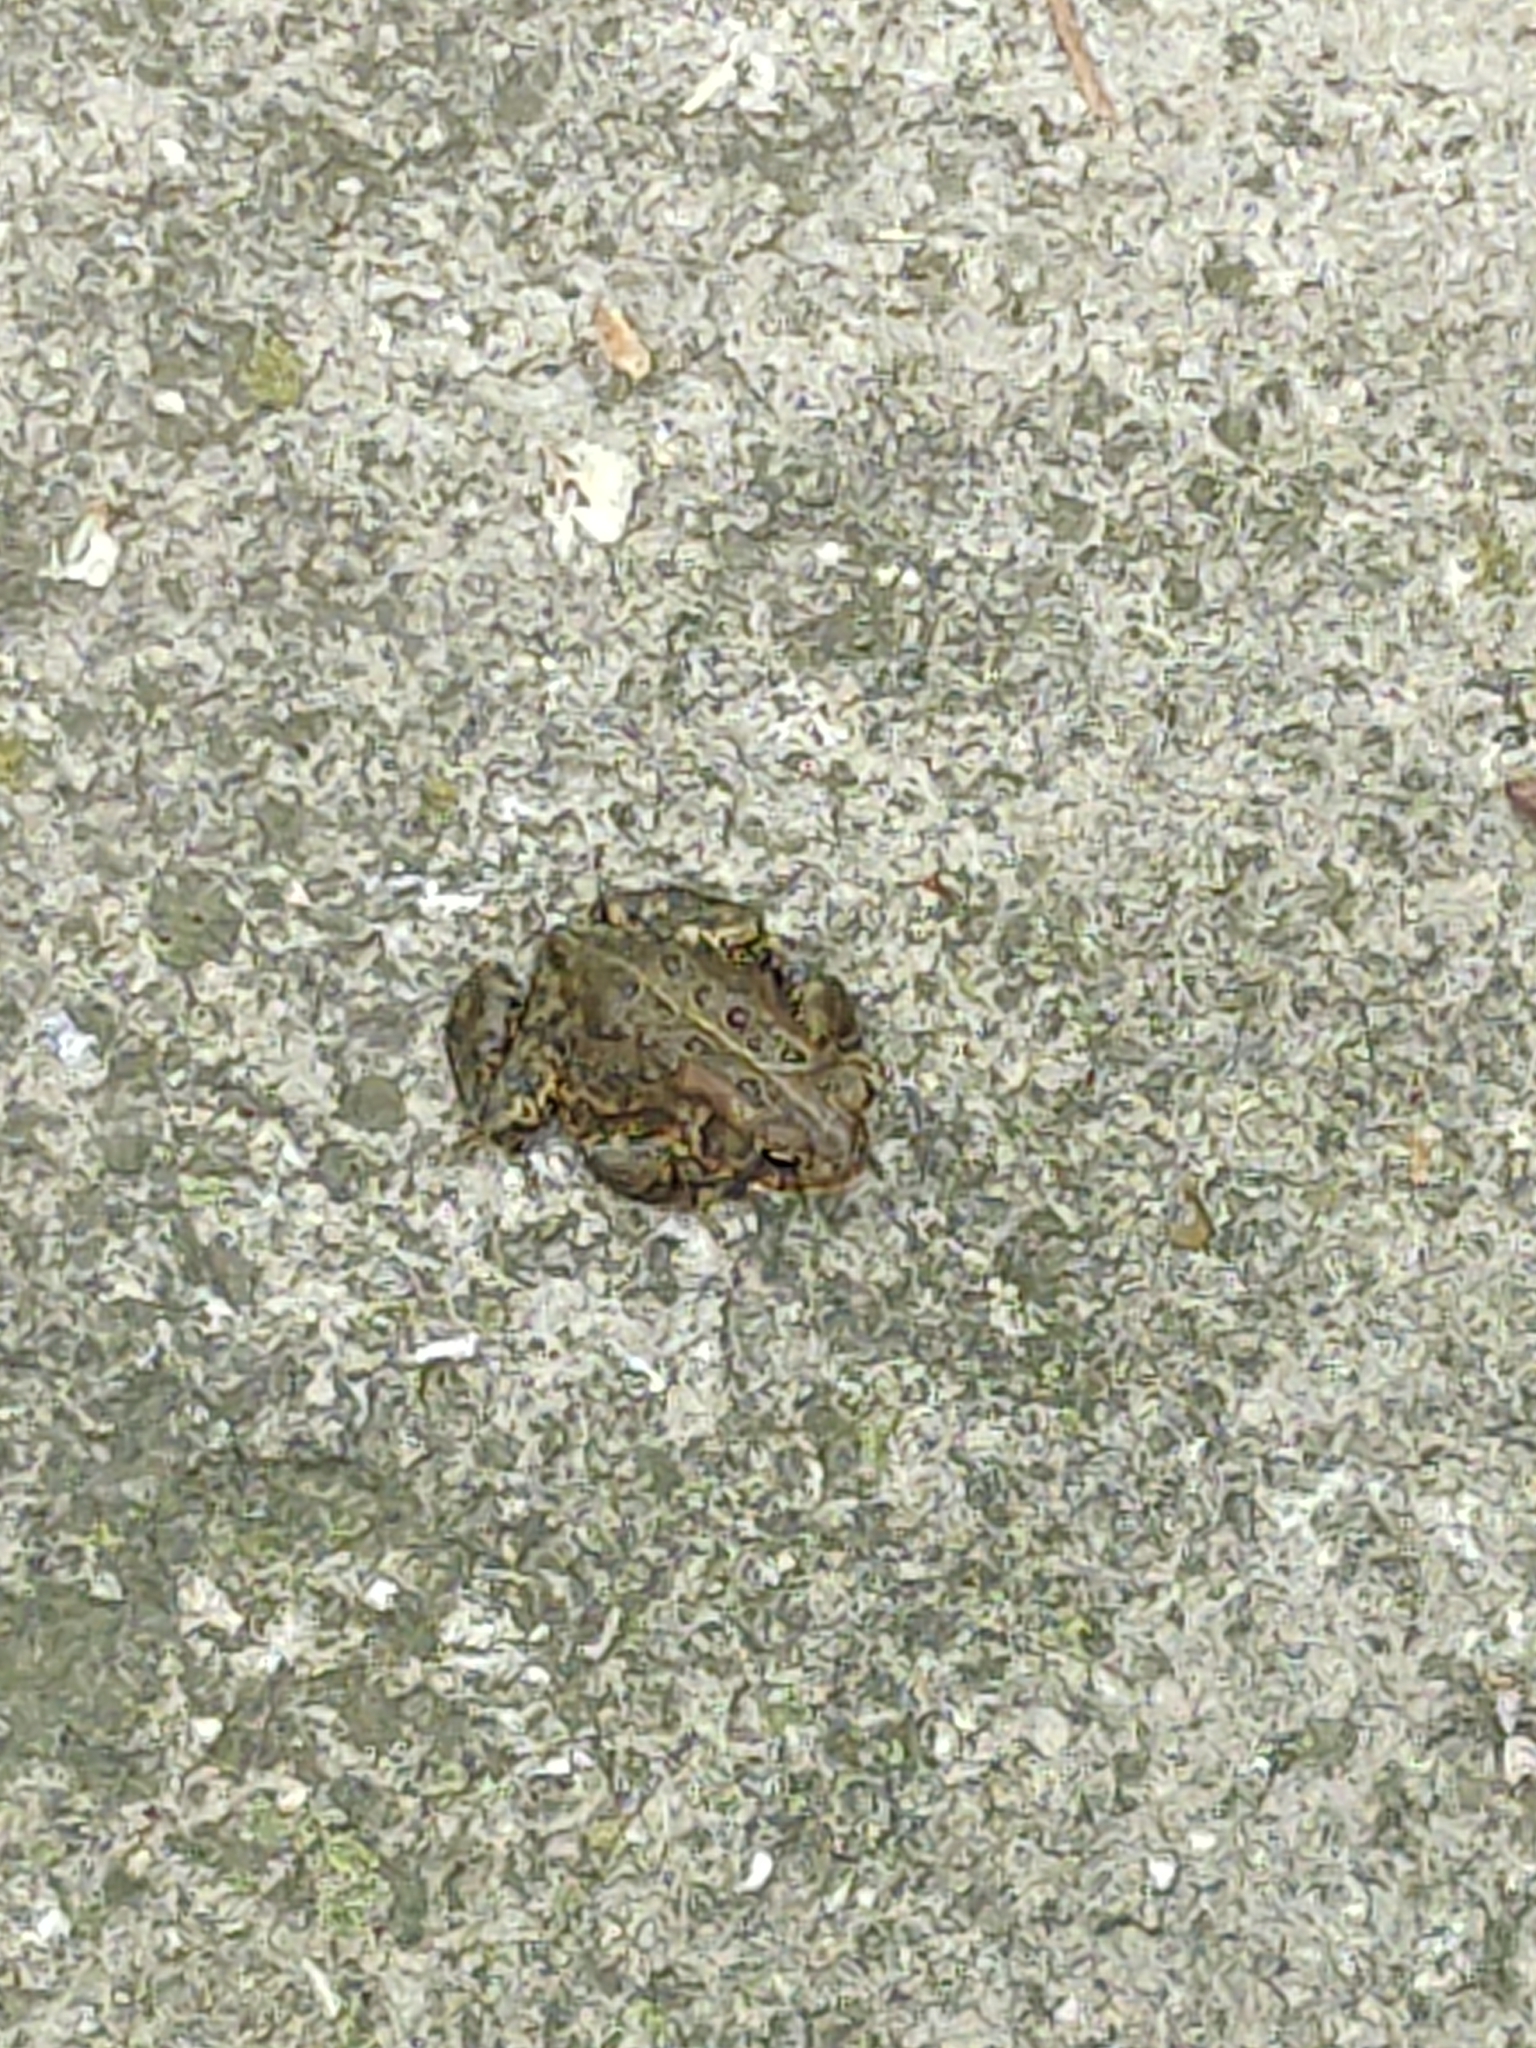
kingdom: Animalia
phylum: Chordata
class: Amphibia
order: Anura
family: Bufonidae
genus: Anaxyrus
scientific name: Anaxyrus americanus
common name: American toad
